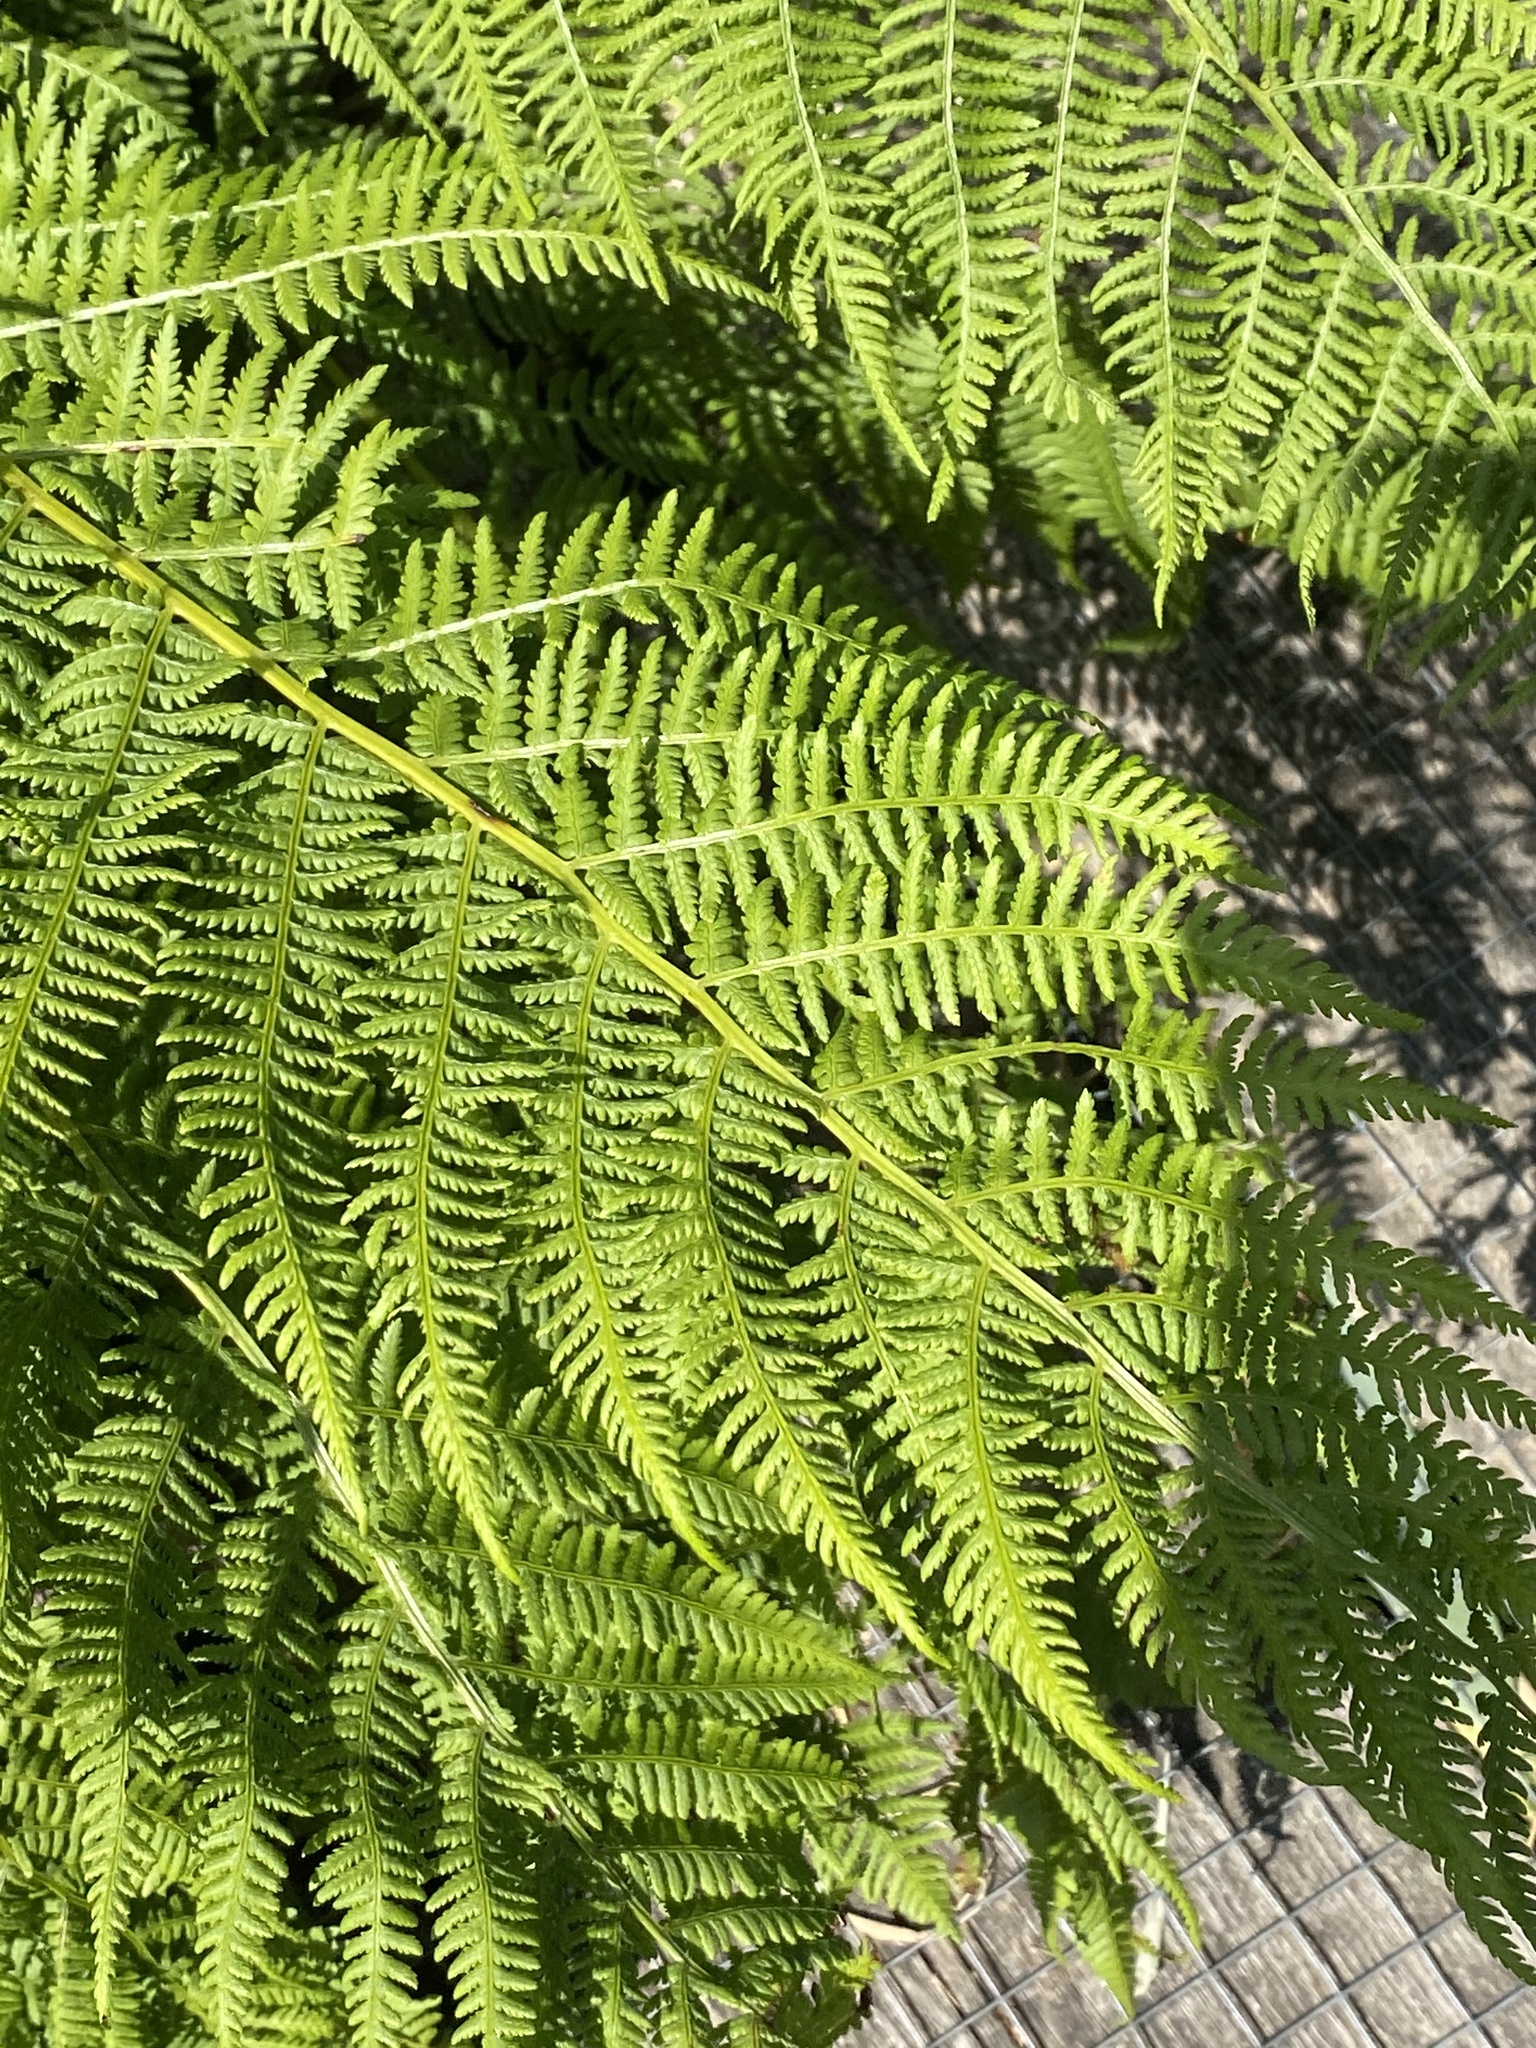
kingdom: Plantae
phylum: Tracheophyta
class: Polypodiopsida
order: Polypodiales
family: Athyriaceae
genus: Athyrium
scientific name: Athyrium filix-femina
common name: Lady fern
